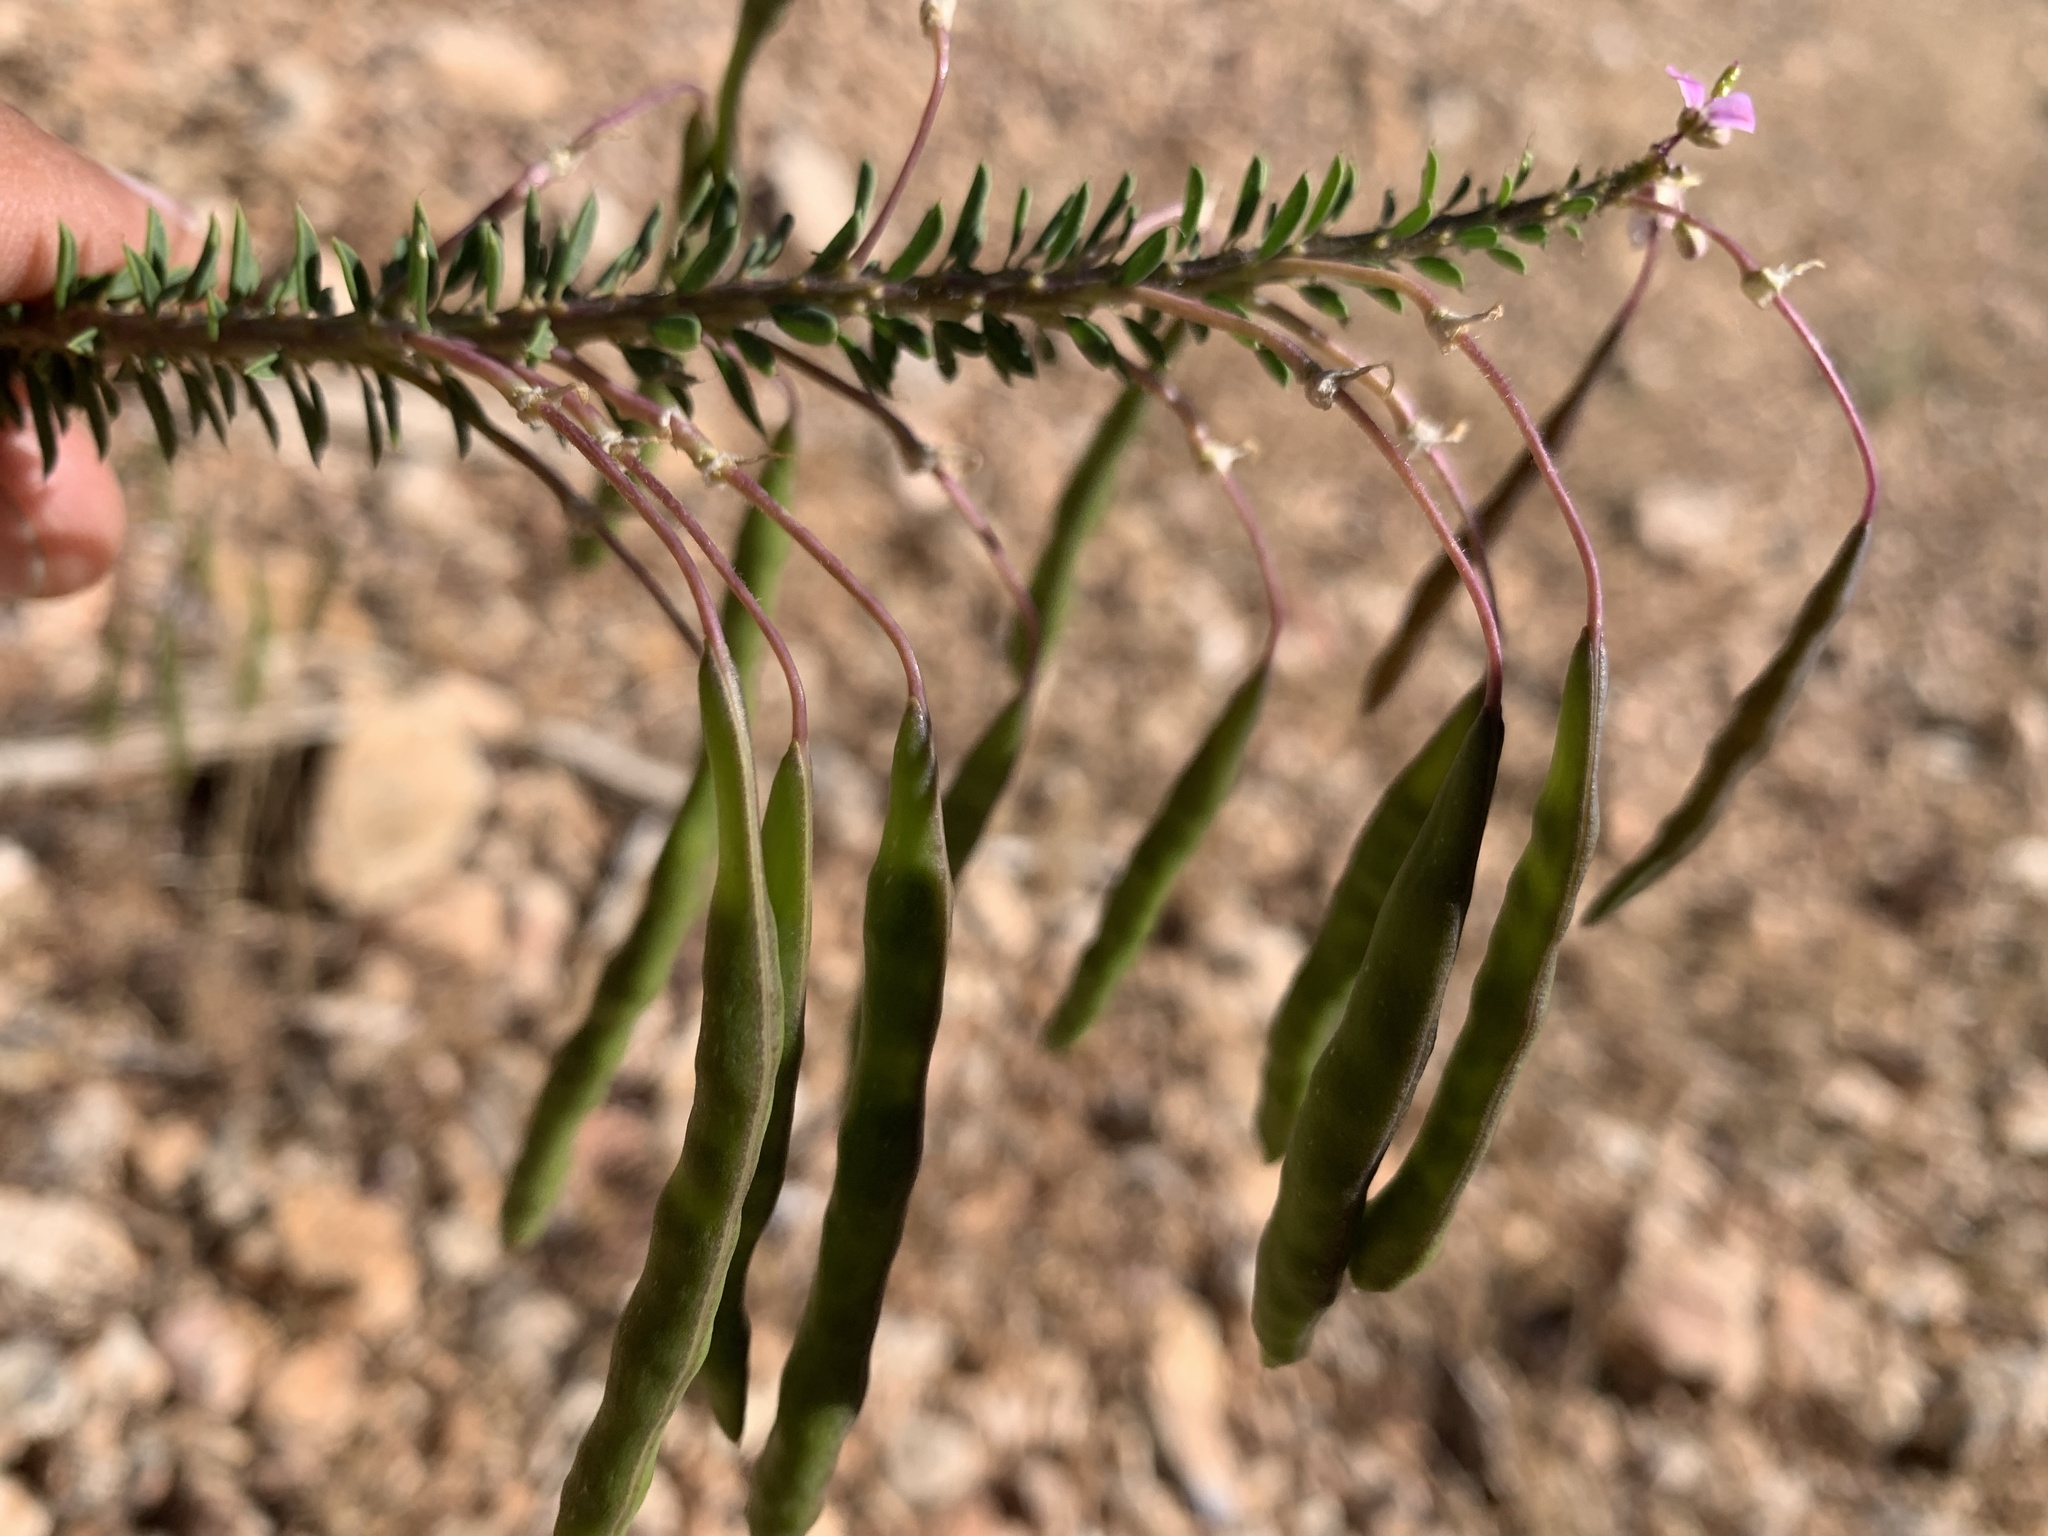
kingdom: Plantae
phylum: Tracheophyta
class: Magnoliopsida
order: Brassicales
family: Cleomaceae
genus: Cleomella
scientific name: Cleomella serrulata
